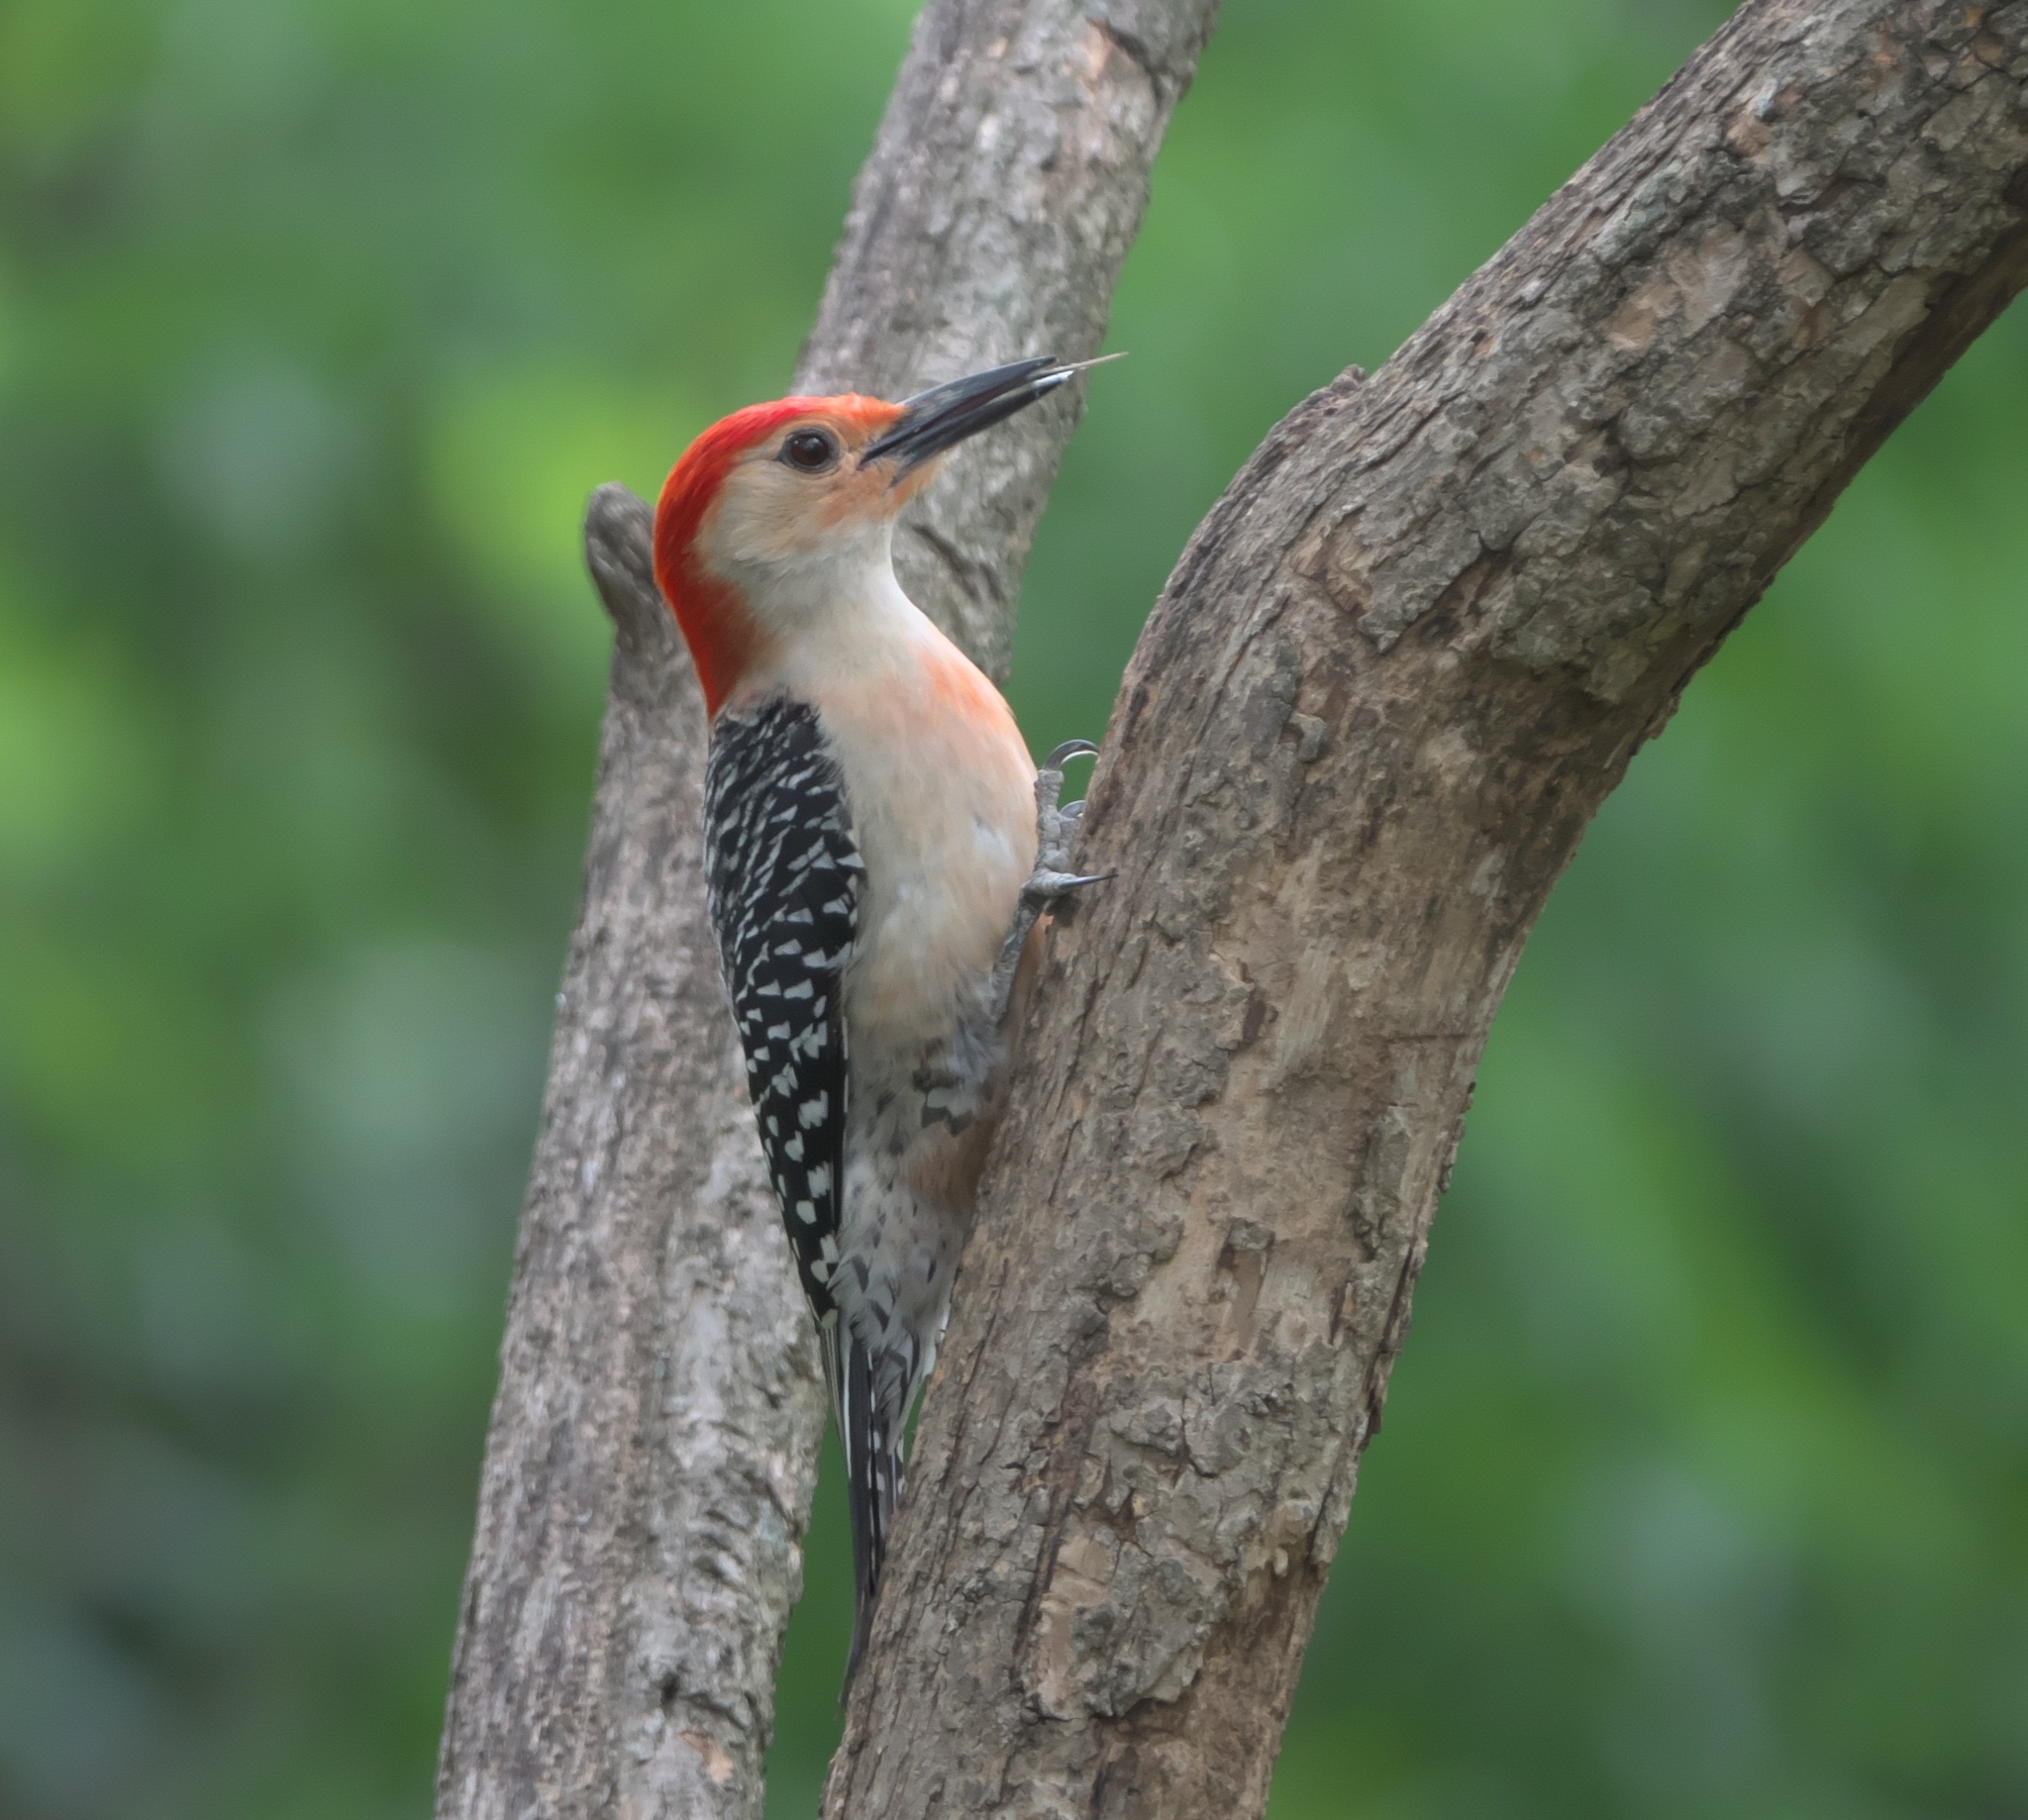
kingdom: Animalia
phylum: Chordata
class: Aves
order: Piciformes
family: Picidae
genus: Melanerpes
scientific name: Melanerpes carolinus
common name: Red-bellied woodpecker
